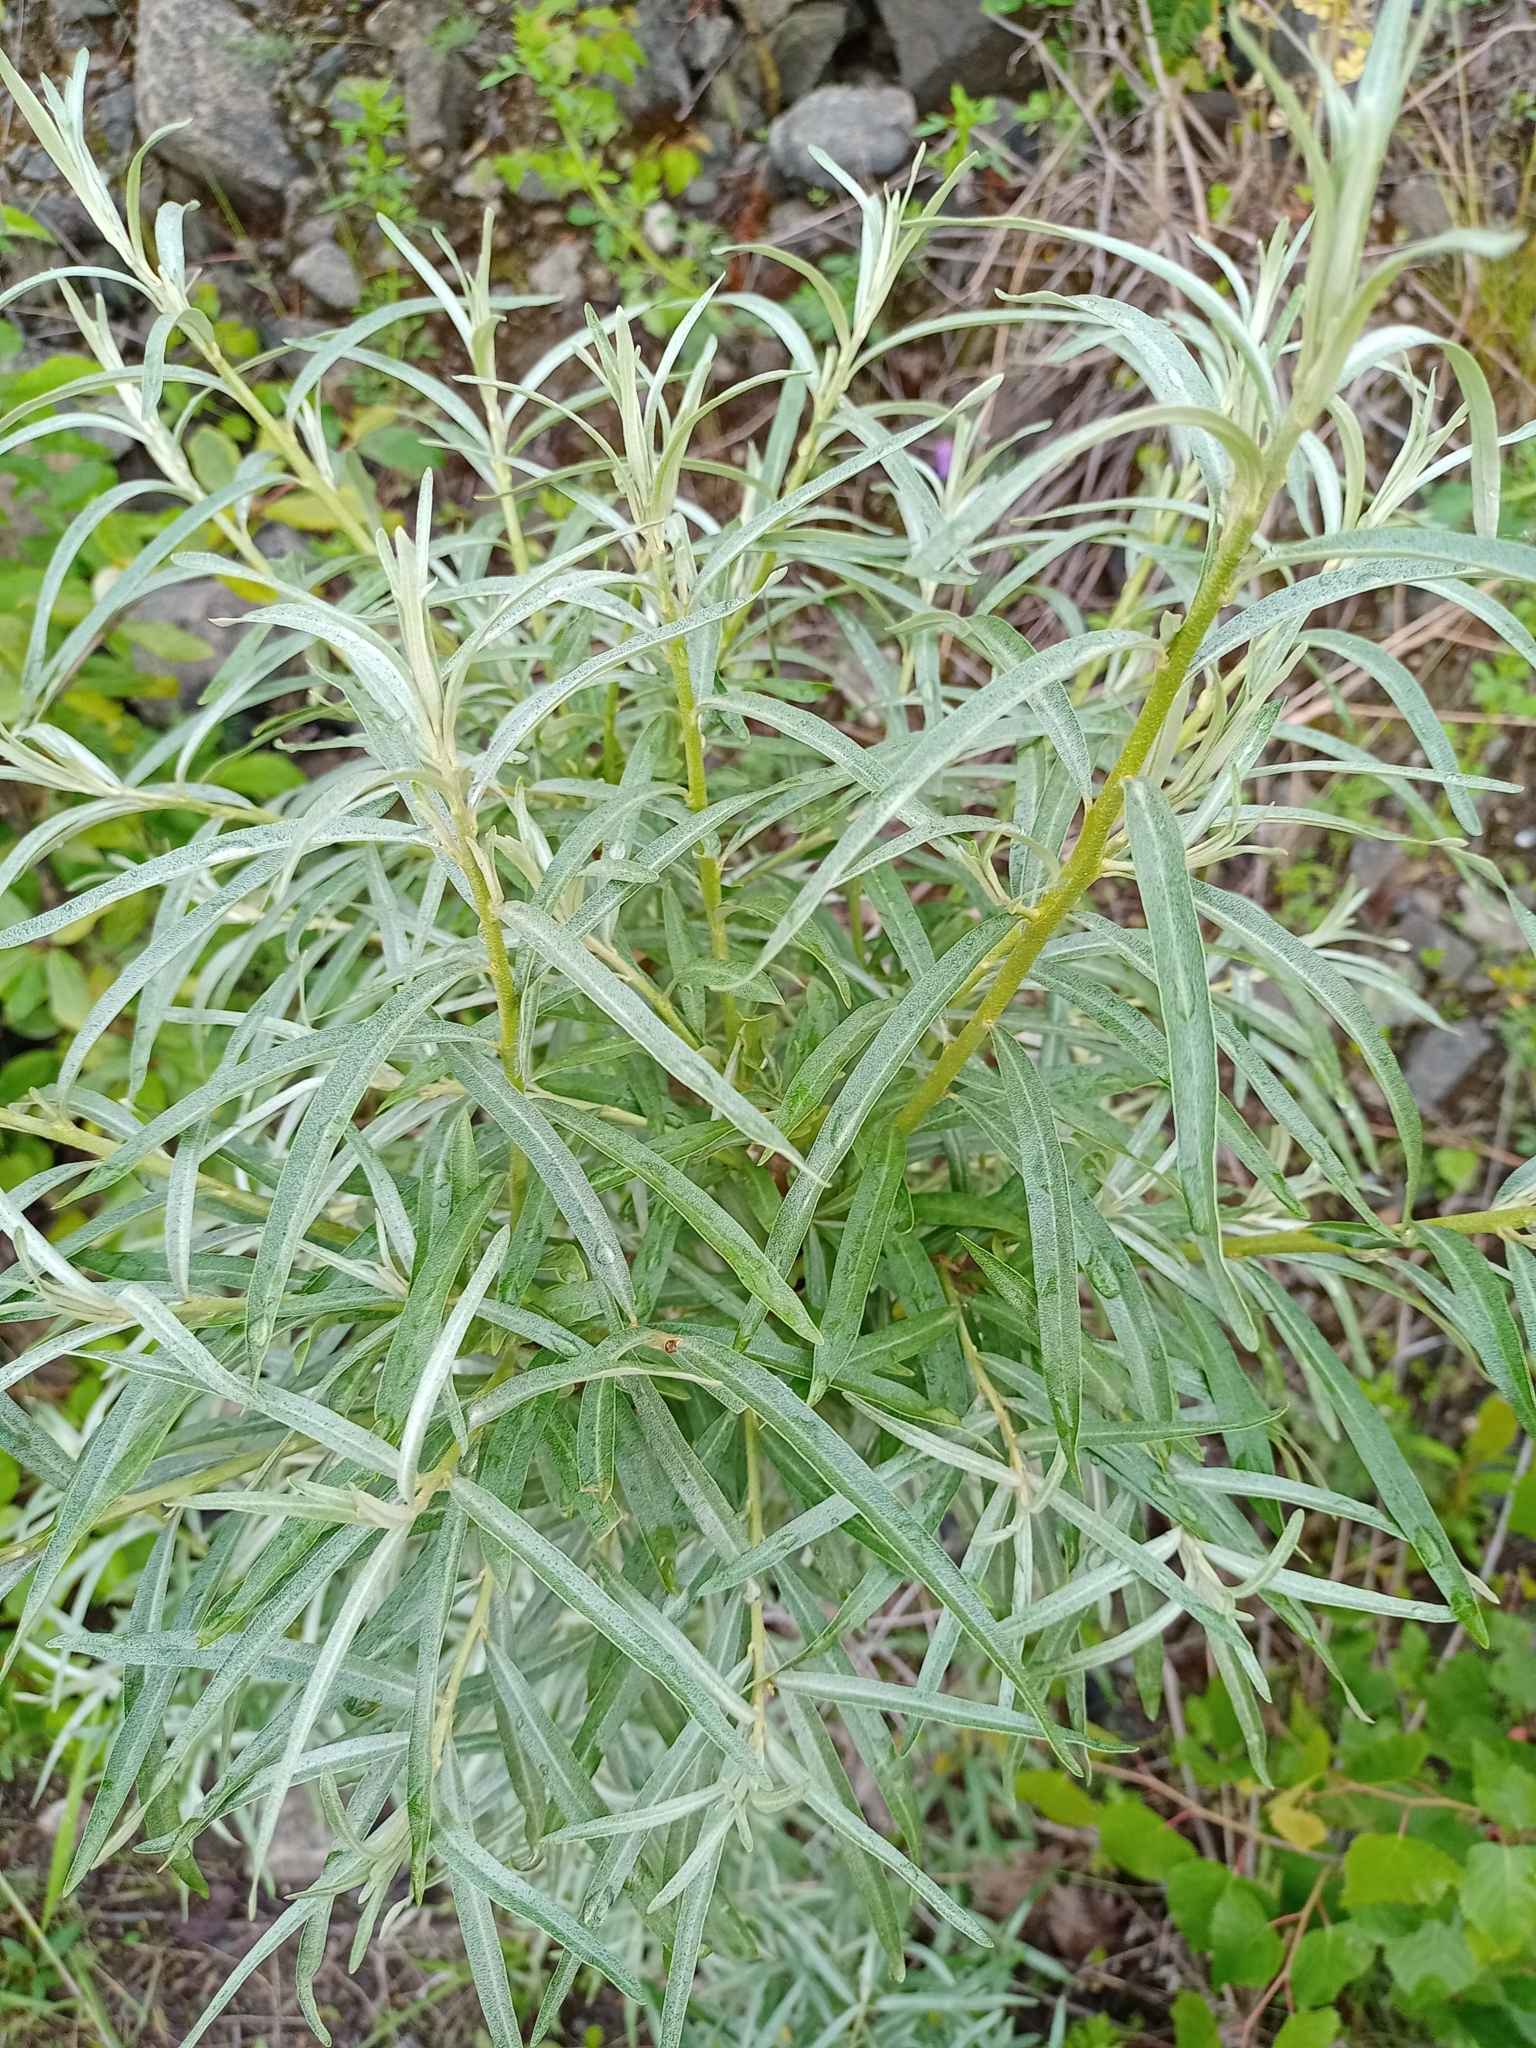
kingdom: Plantae
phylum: Tracheophyta
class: Magnoliopsida
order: Rosales
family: Elaeagnaceae
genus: Hippophae
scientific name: Hippophae rhamnoides
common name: Sea-buckthorn
